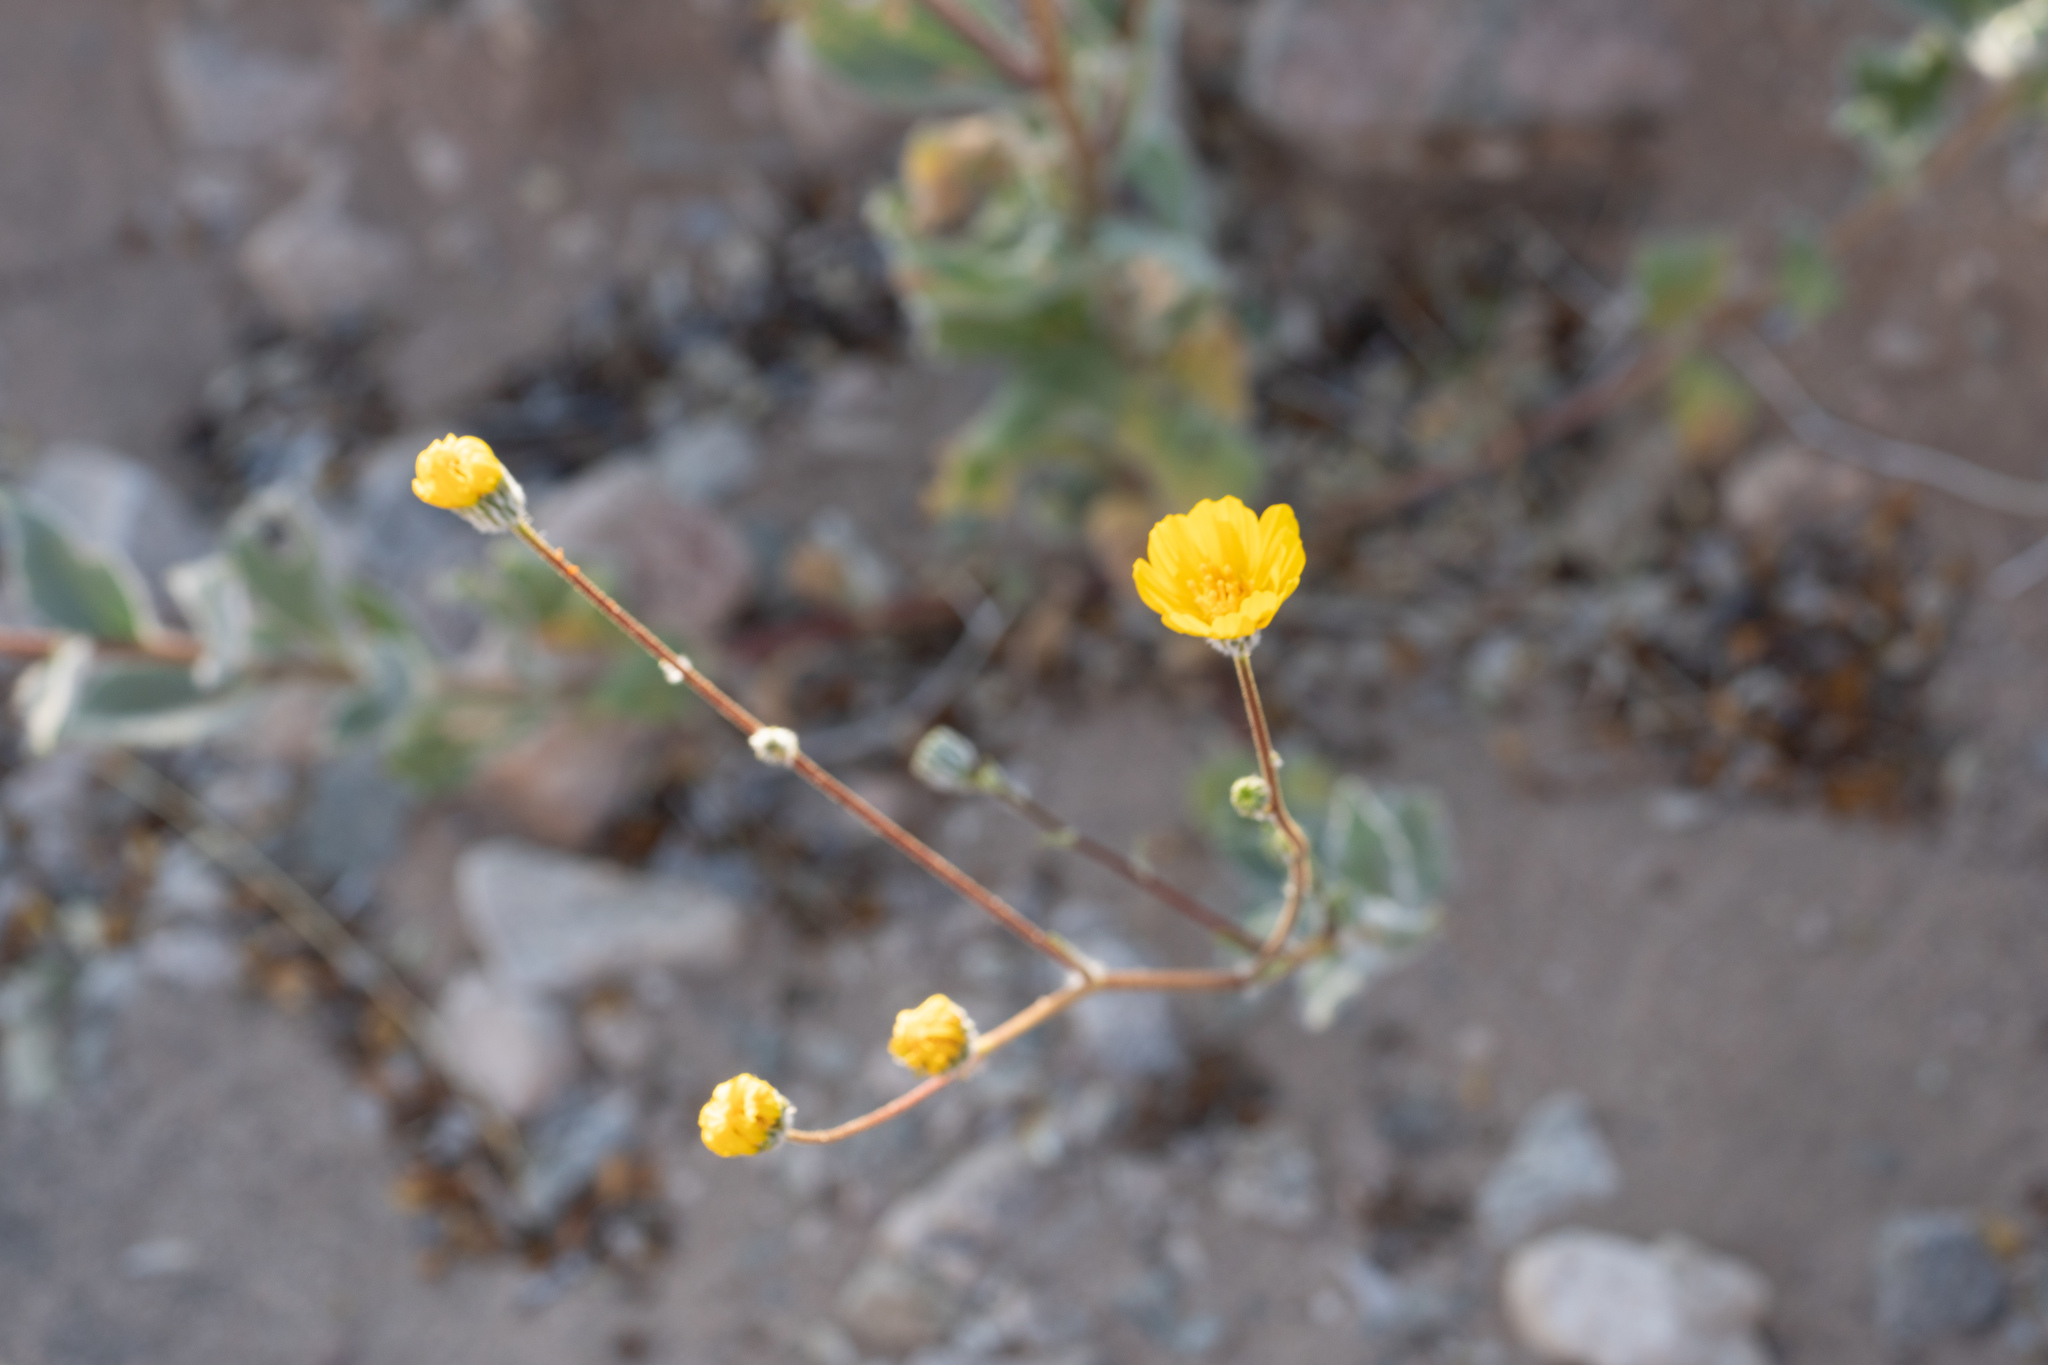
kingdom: Plantae
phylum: Tracheophyta
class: Magnoliopsida
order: Asterales
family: Asteraceae
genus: Geraea
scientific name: Geraea canescens
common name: Desert-gold
